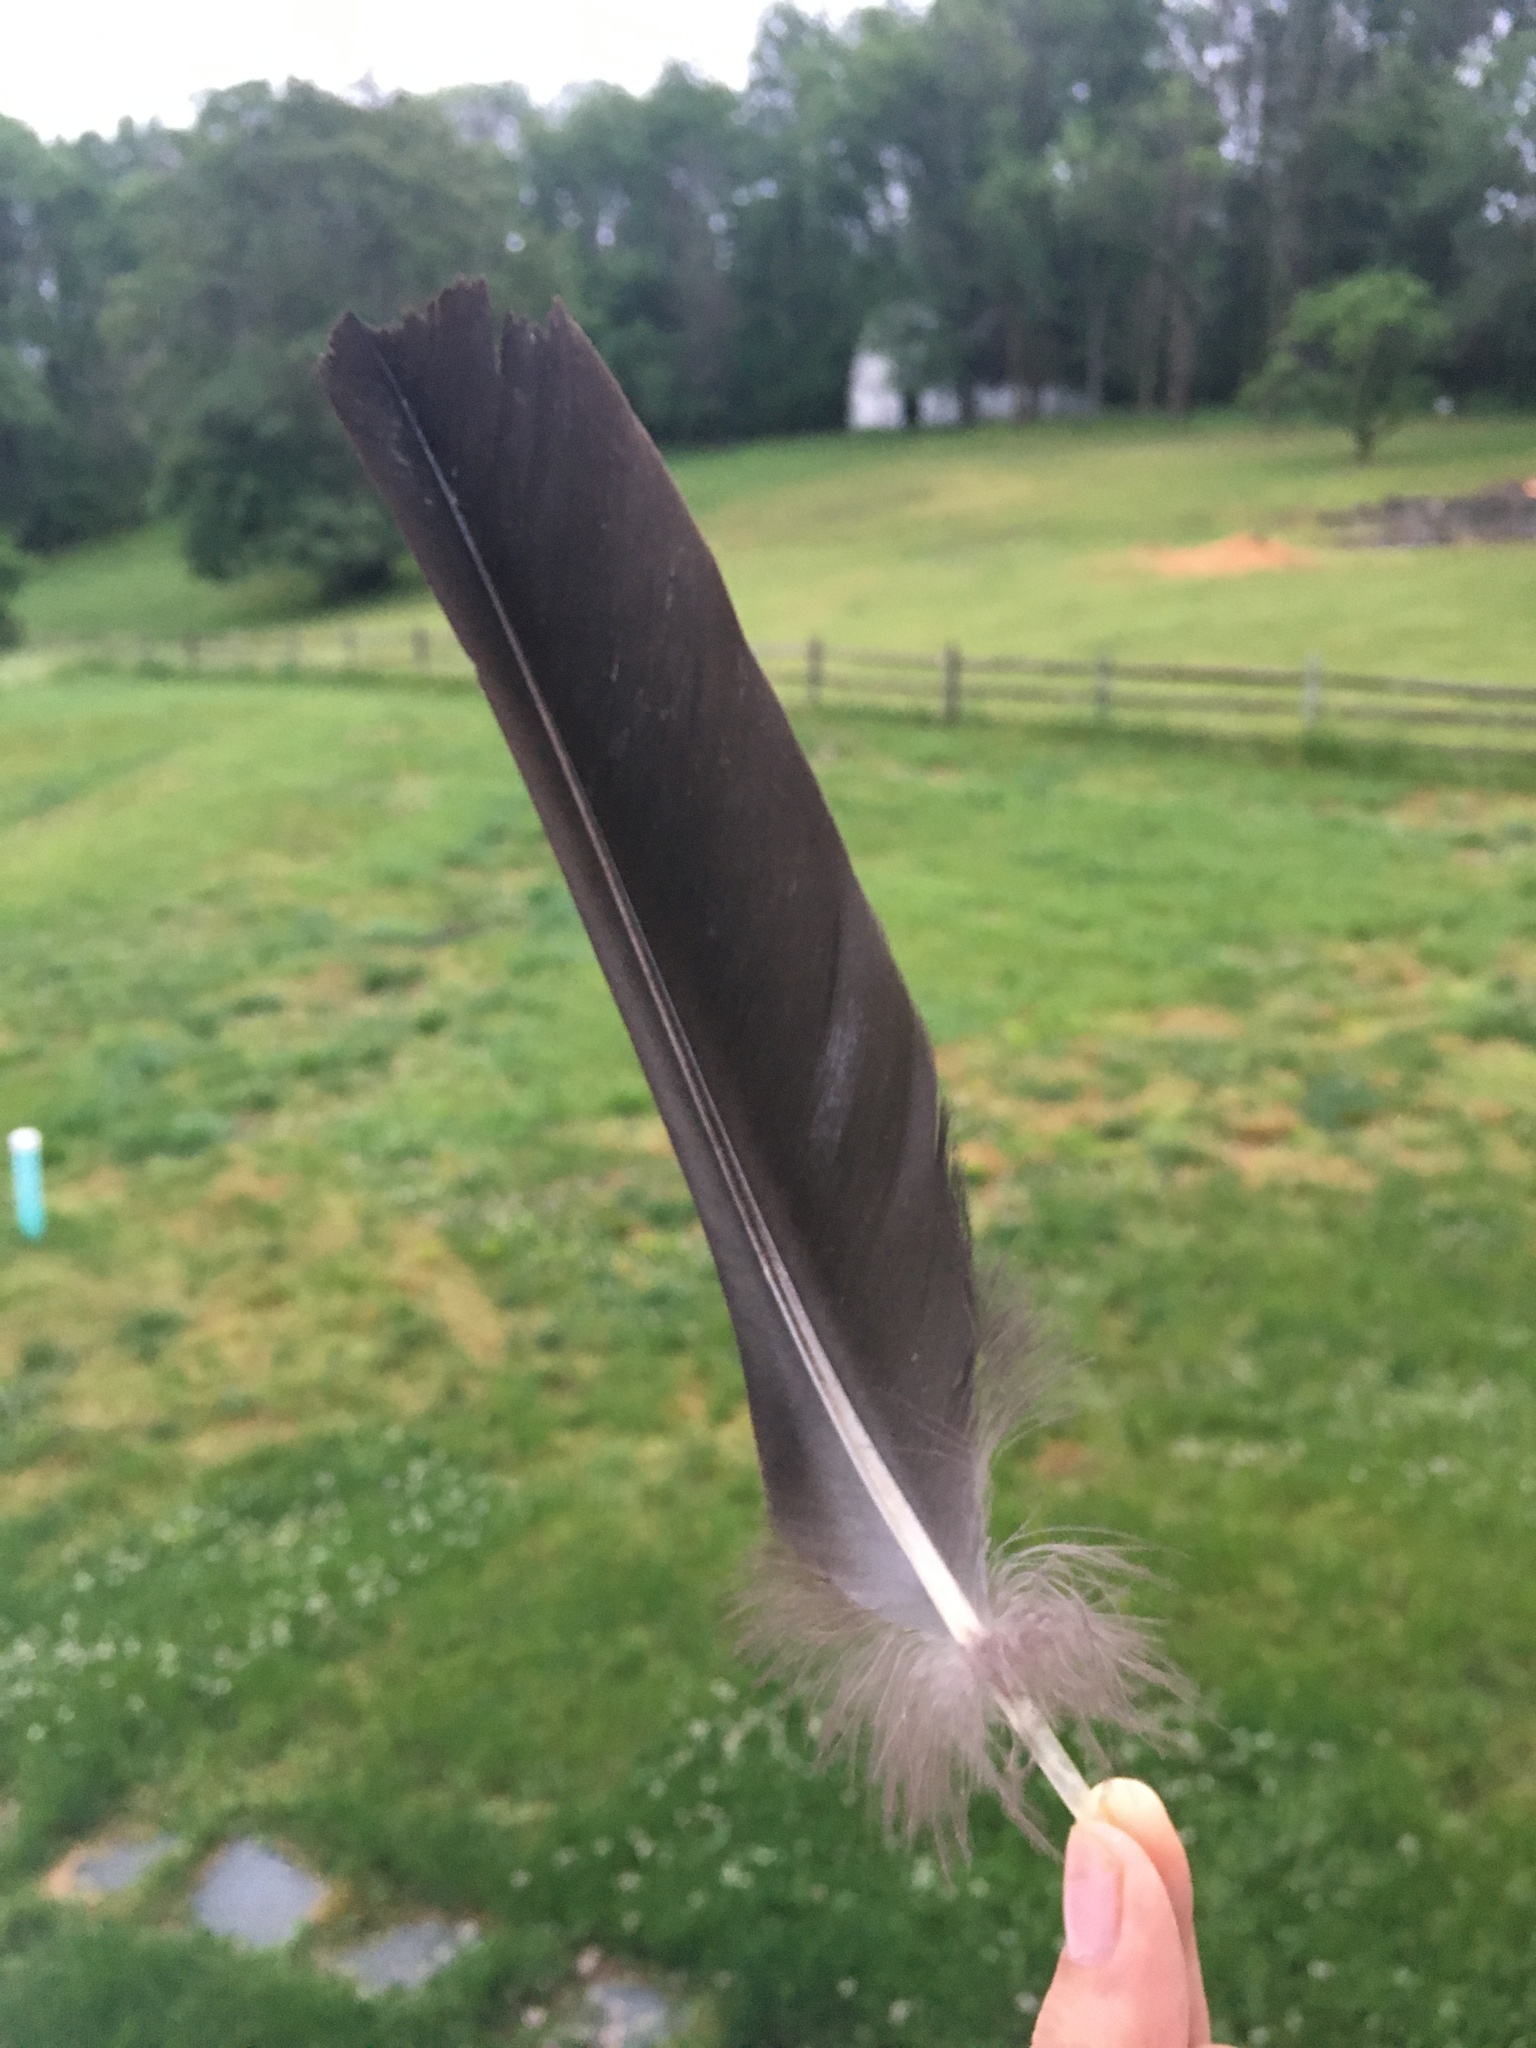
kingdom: Animalia
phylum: Chordata
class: Aves
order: Accipitriformes
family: Cathartidae
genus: Coragyps
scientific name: Coragyps atratus
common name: Black vulture
